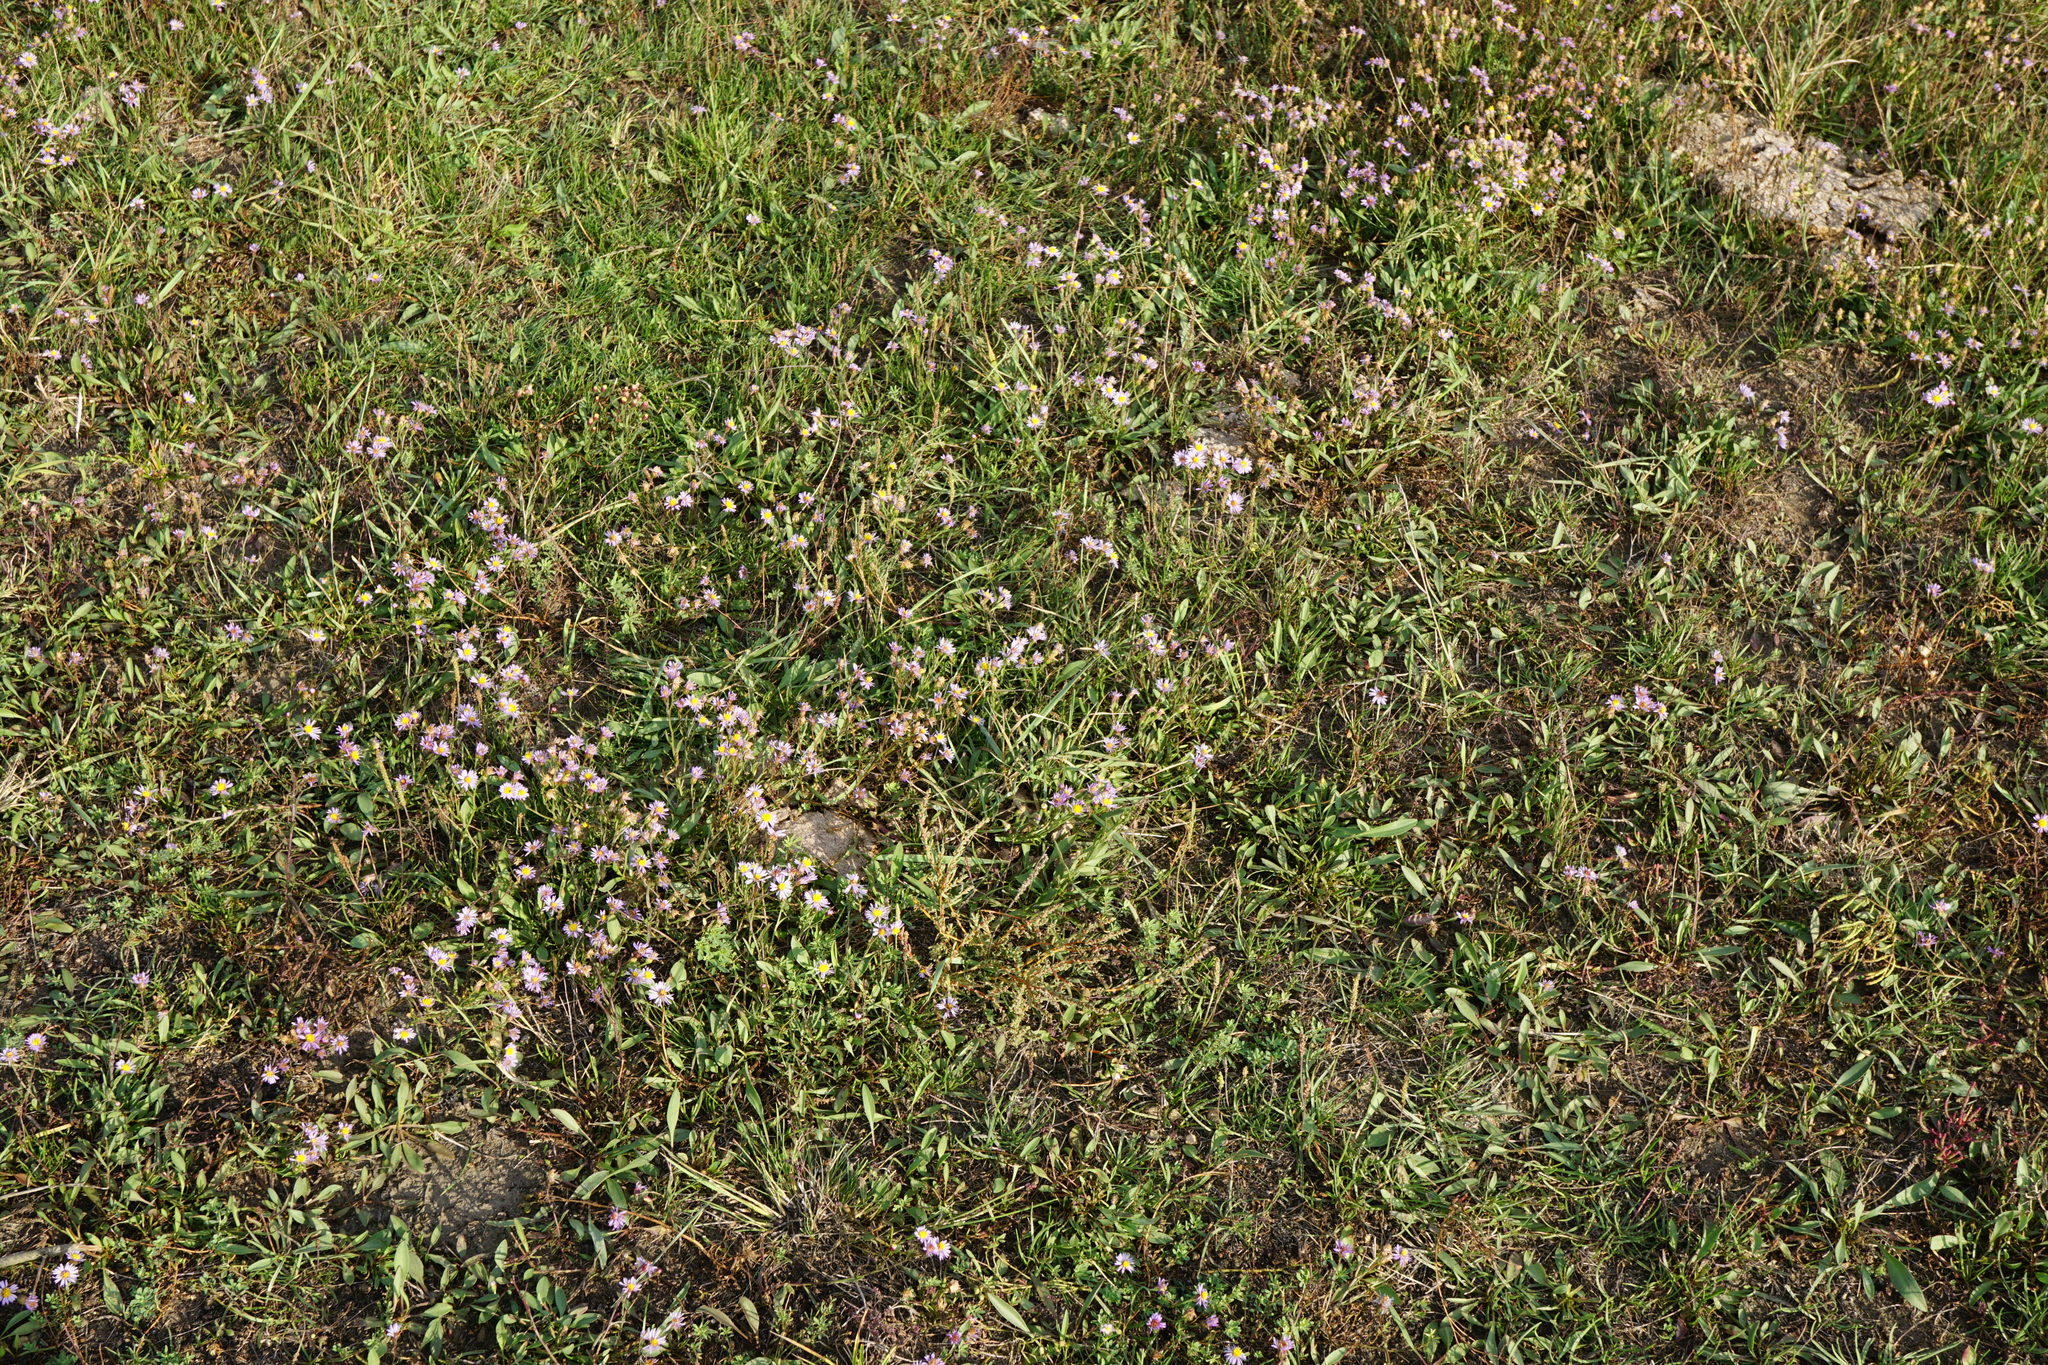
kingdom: Plantae
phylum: Tracheophyta
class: Magnoliopsida
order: Asterales
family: Asteraceae
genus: Tripolium
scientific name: Tripolium pannonicum
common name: Sea aster
